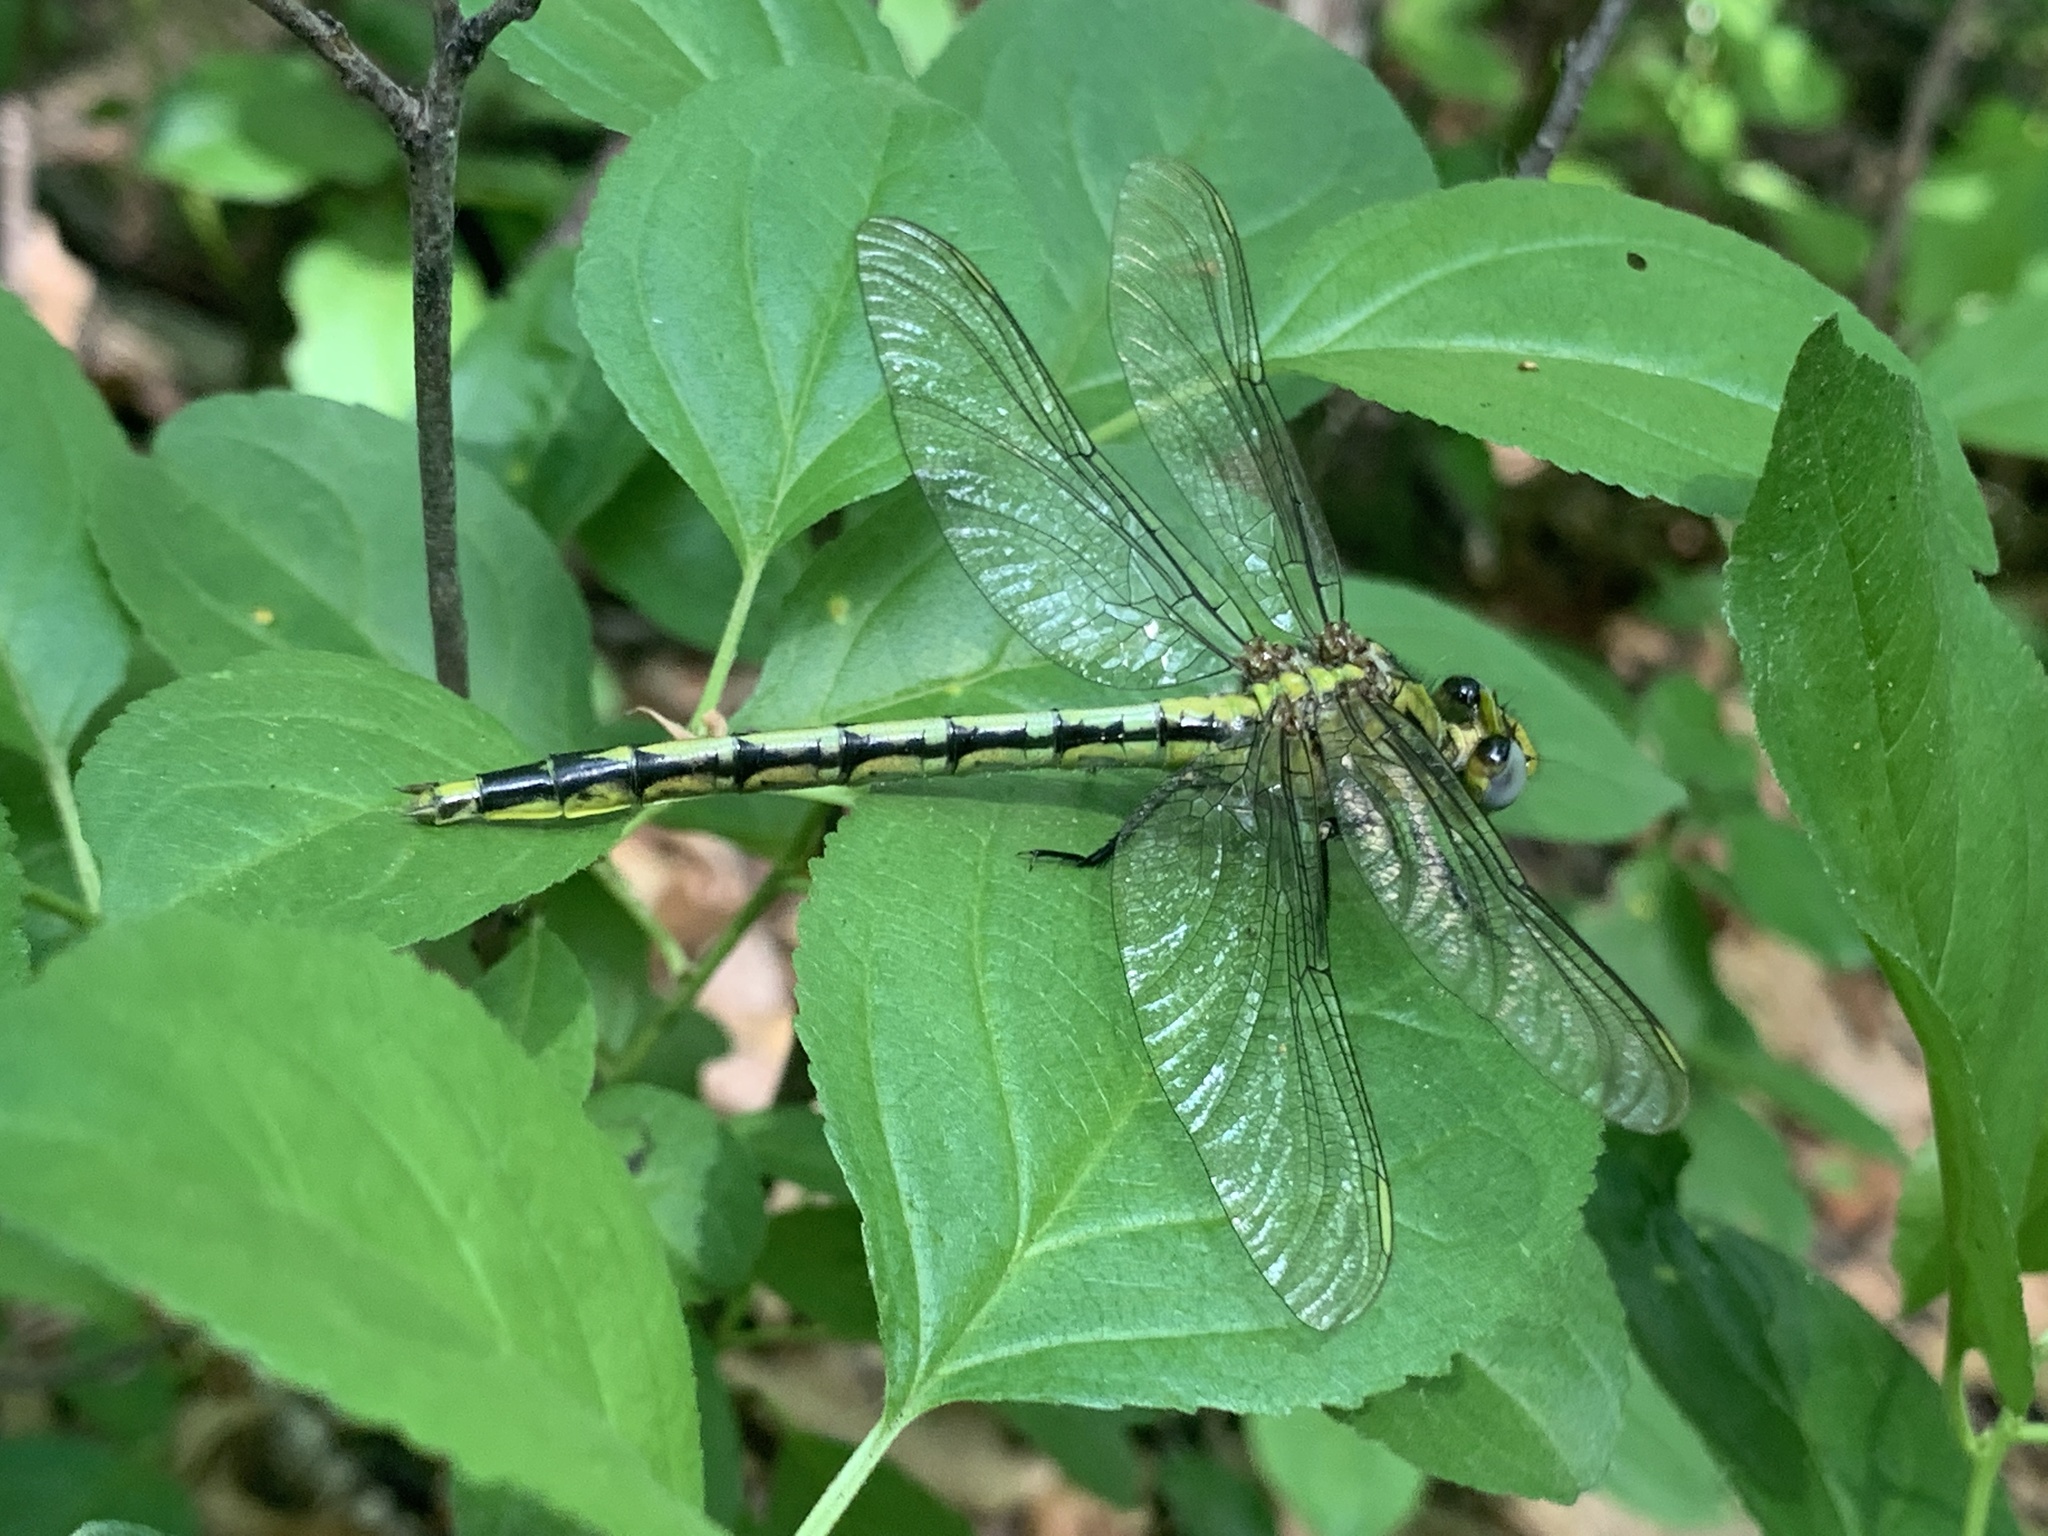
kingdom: Animalia
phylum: Arthropoda
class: Insecta
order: Odonata
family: Gomphidae
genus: Arigomphus
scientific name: Arigomphus cornutus
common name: Horned clubtail
